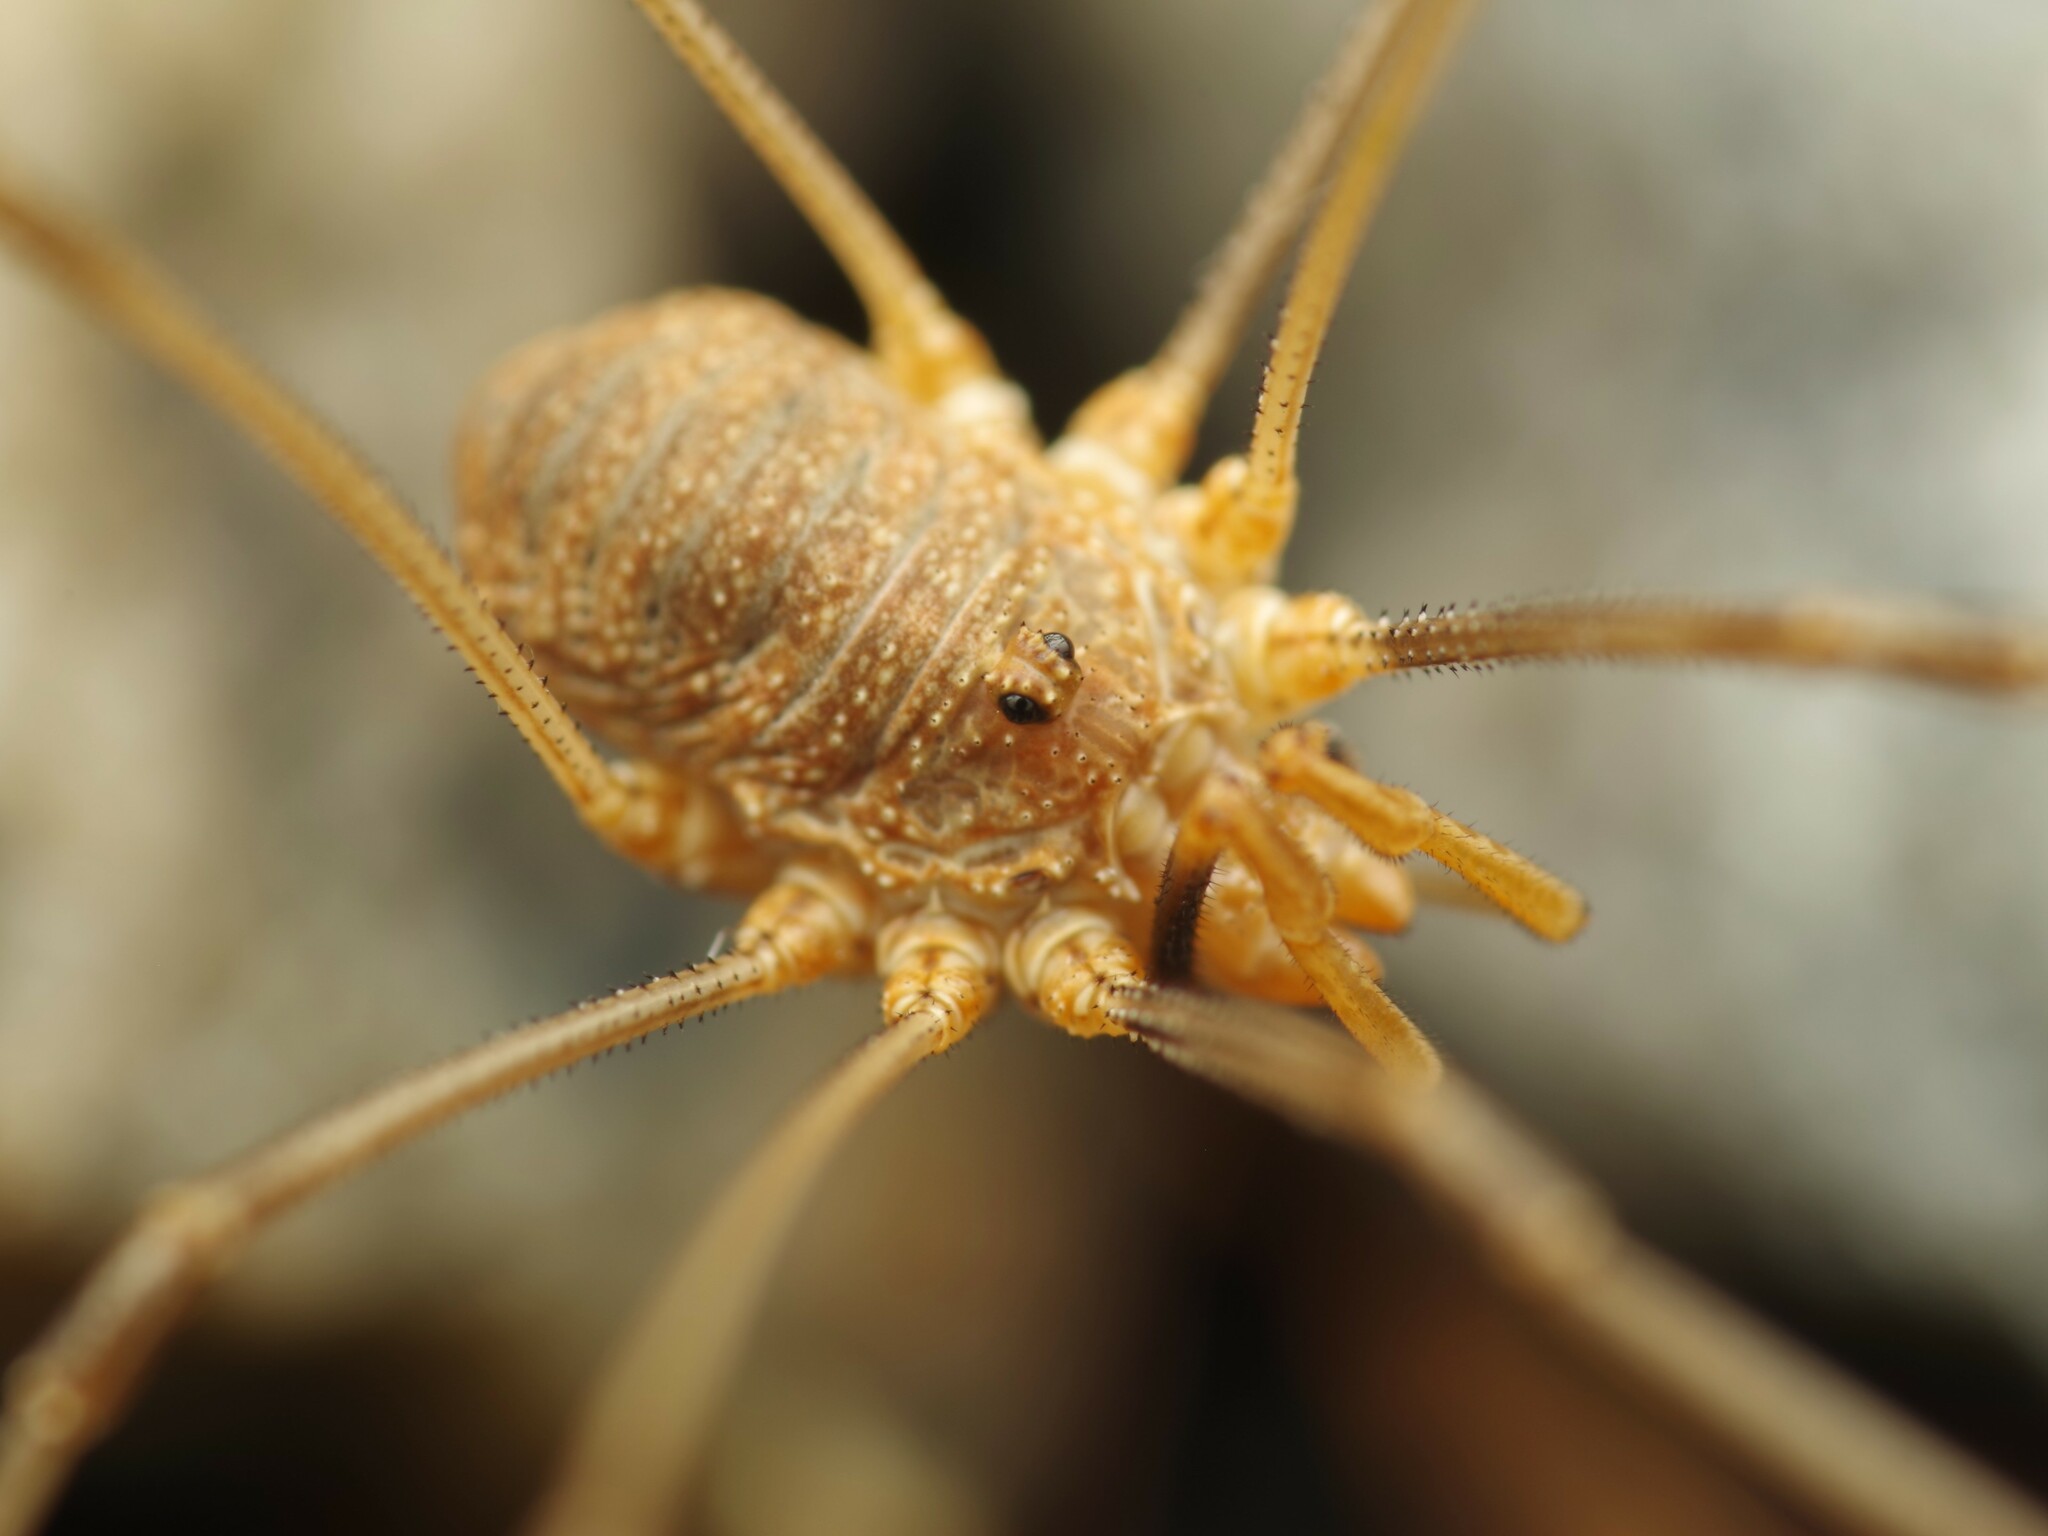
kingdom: Animalia
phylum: Arthropoda
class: Arachnida
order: Opiliones
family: Phalangiidae
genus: Phalangium
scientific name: Phalangium opilio
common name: Daddy longleg
